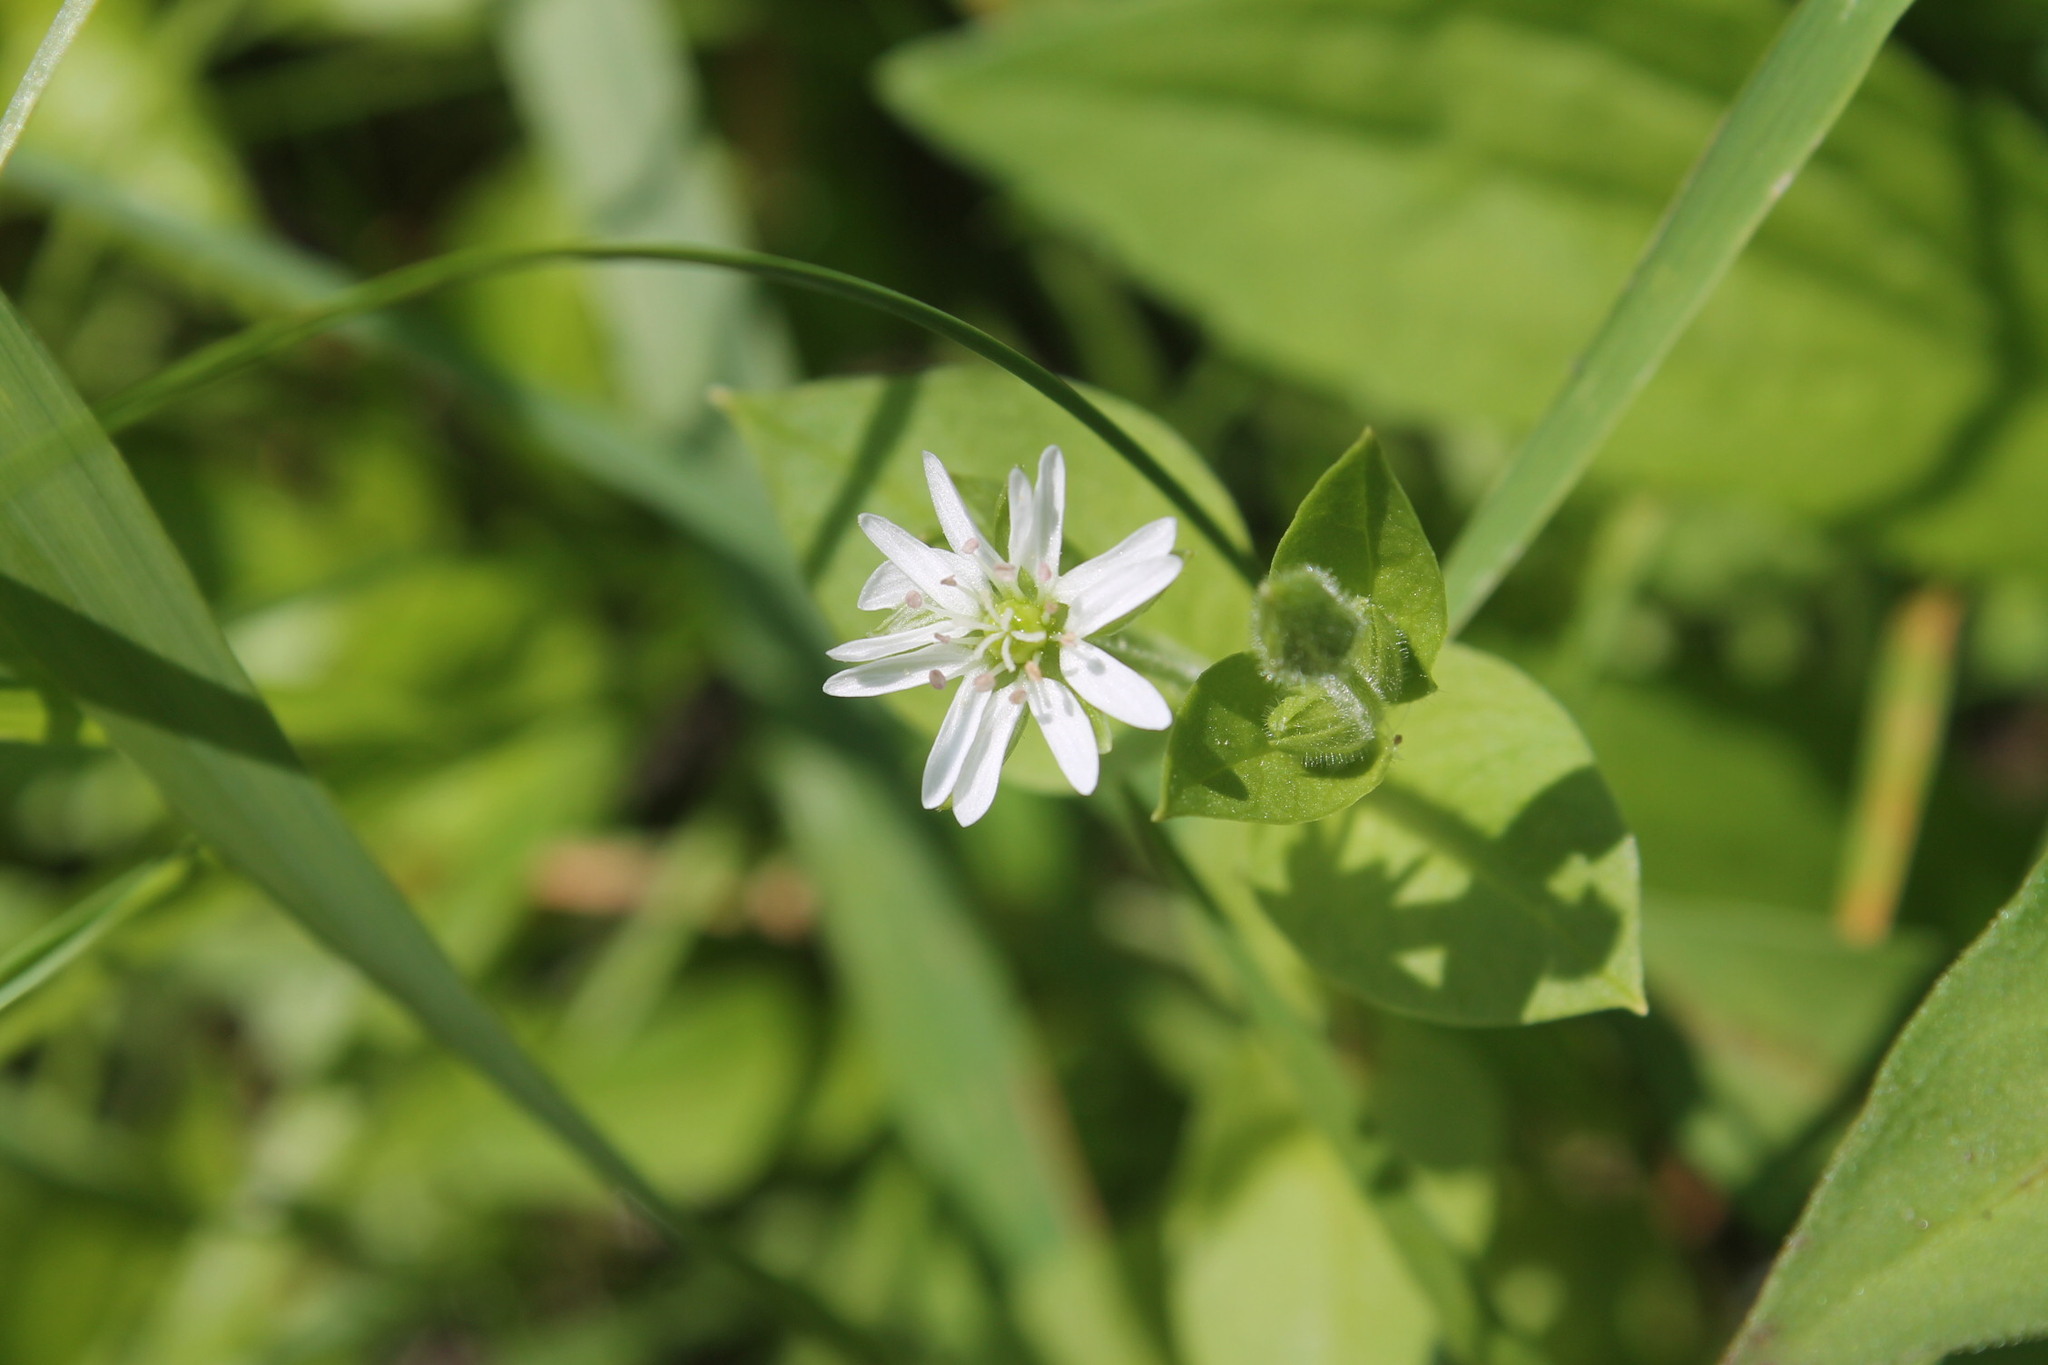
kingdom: Plantae
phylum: Tracheophyta
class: Magnoliopsida
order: Caryophyllales
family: Caryophyllaceae
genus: Stellaria
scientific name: Stellaria aquatica
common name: Water chickweed
